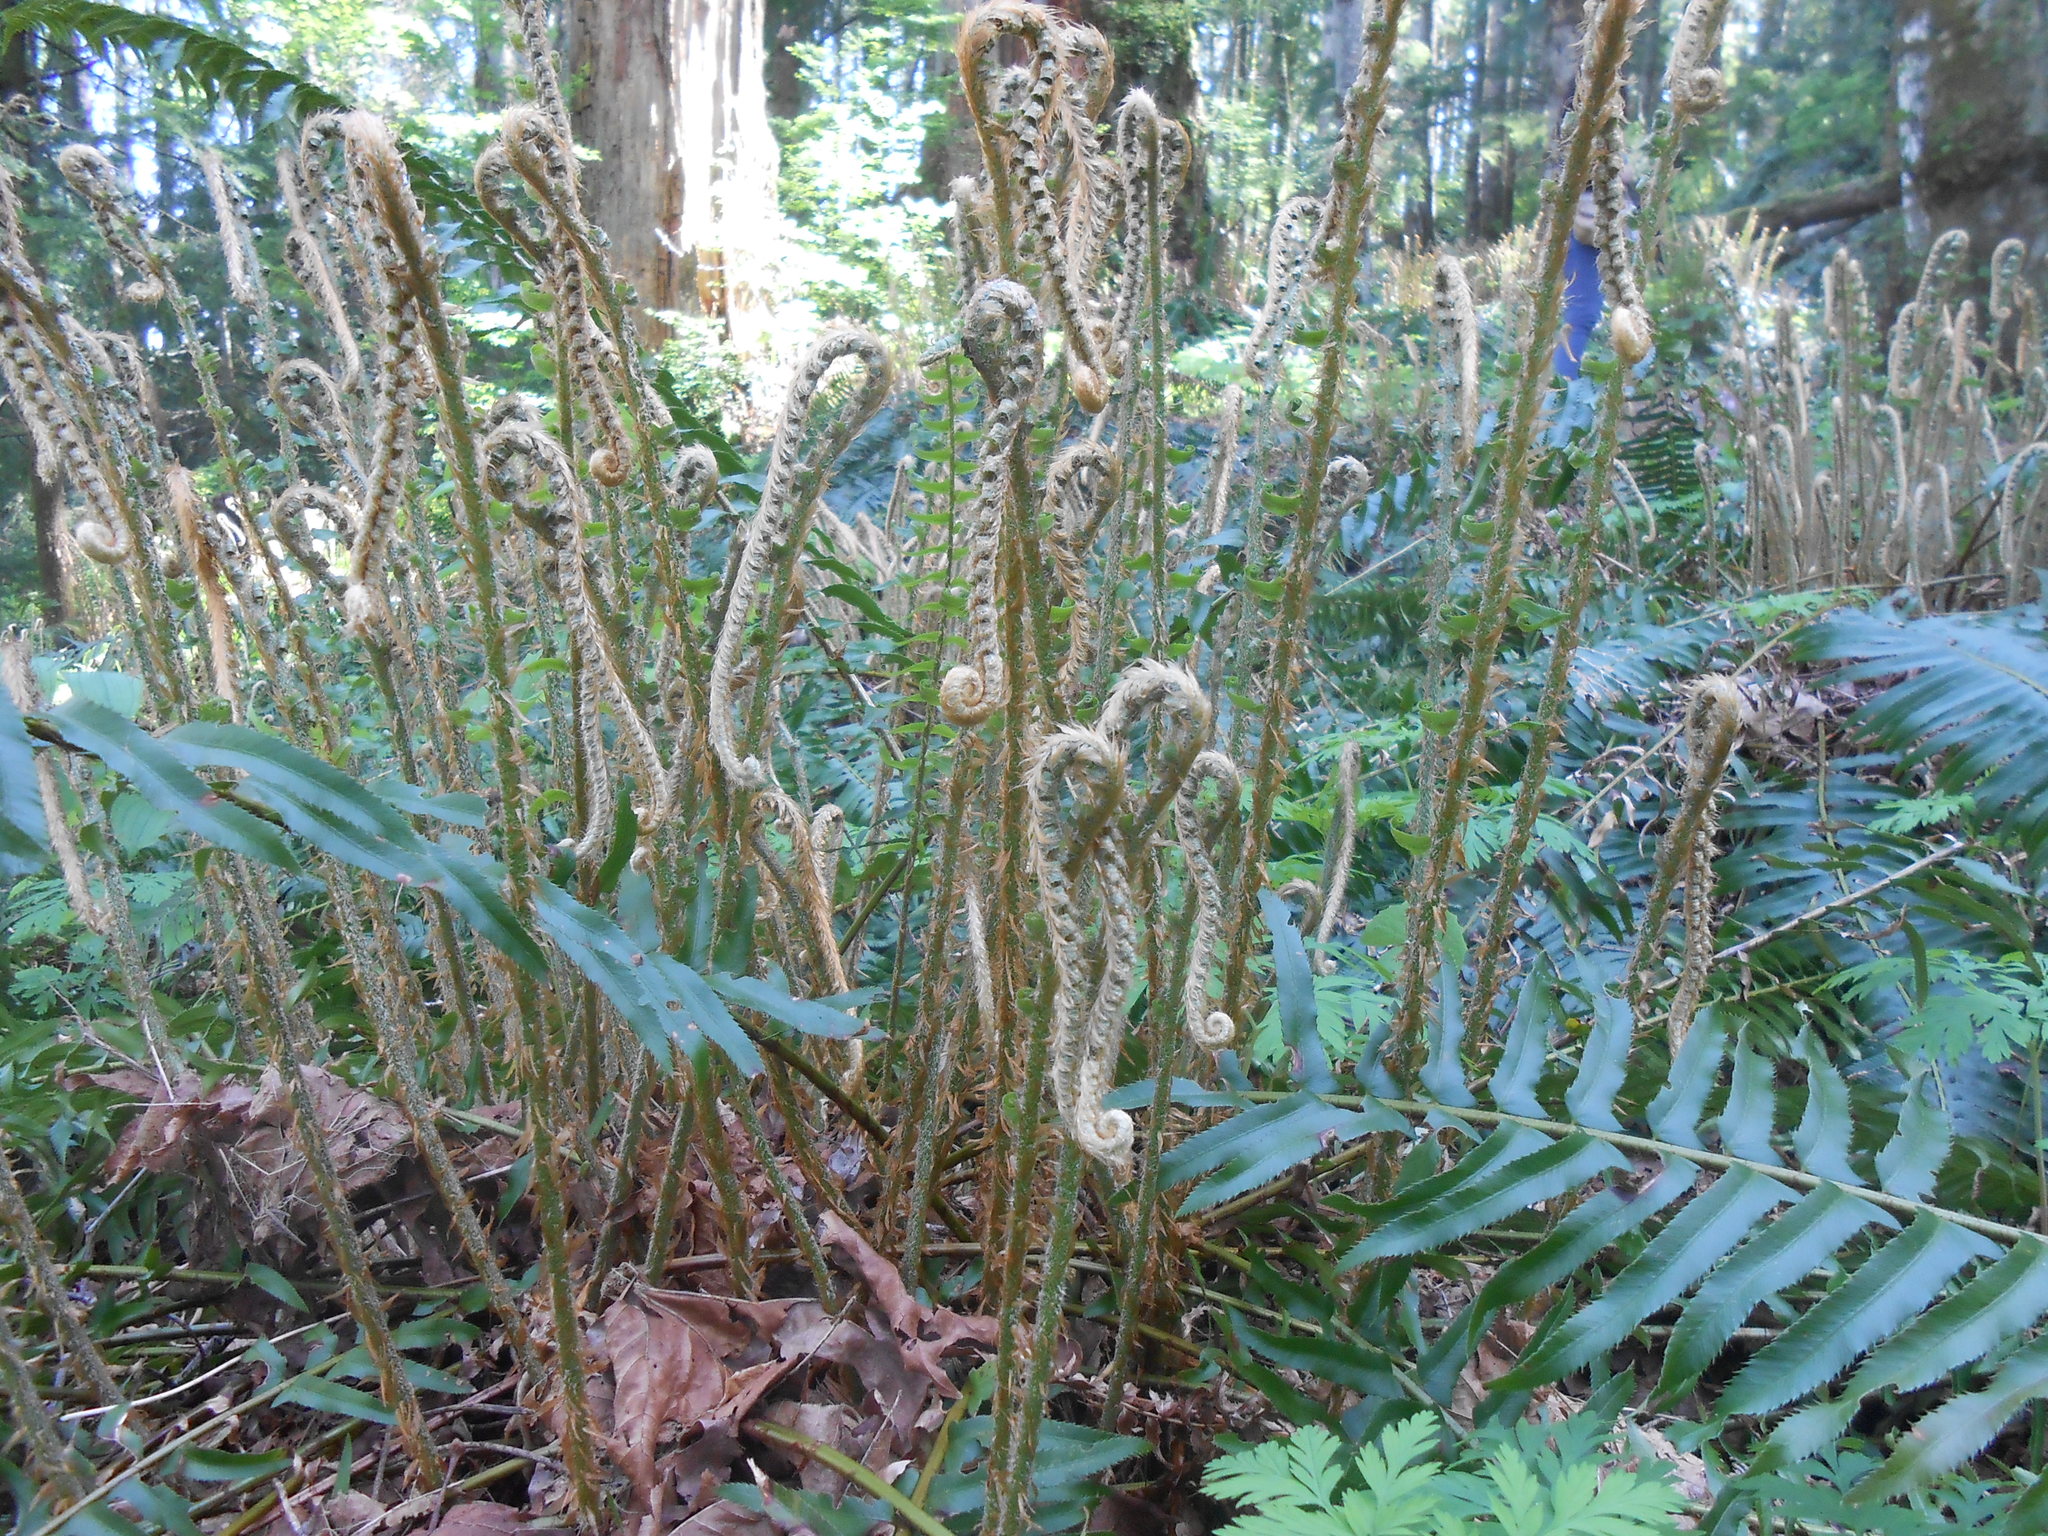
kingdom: Plantae
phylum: Tracheophyta
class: Polypodiopsida
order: Polypodiales
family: Dryopteridaceae
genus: Polystichum
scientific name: Polystichum munitum
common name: Western sword-fern
